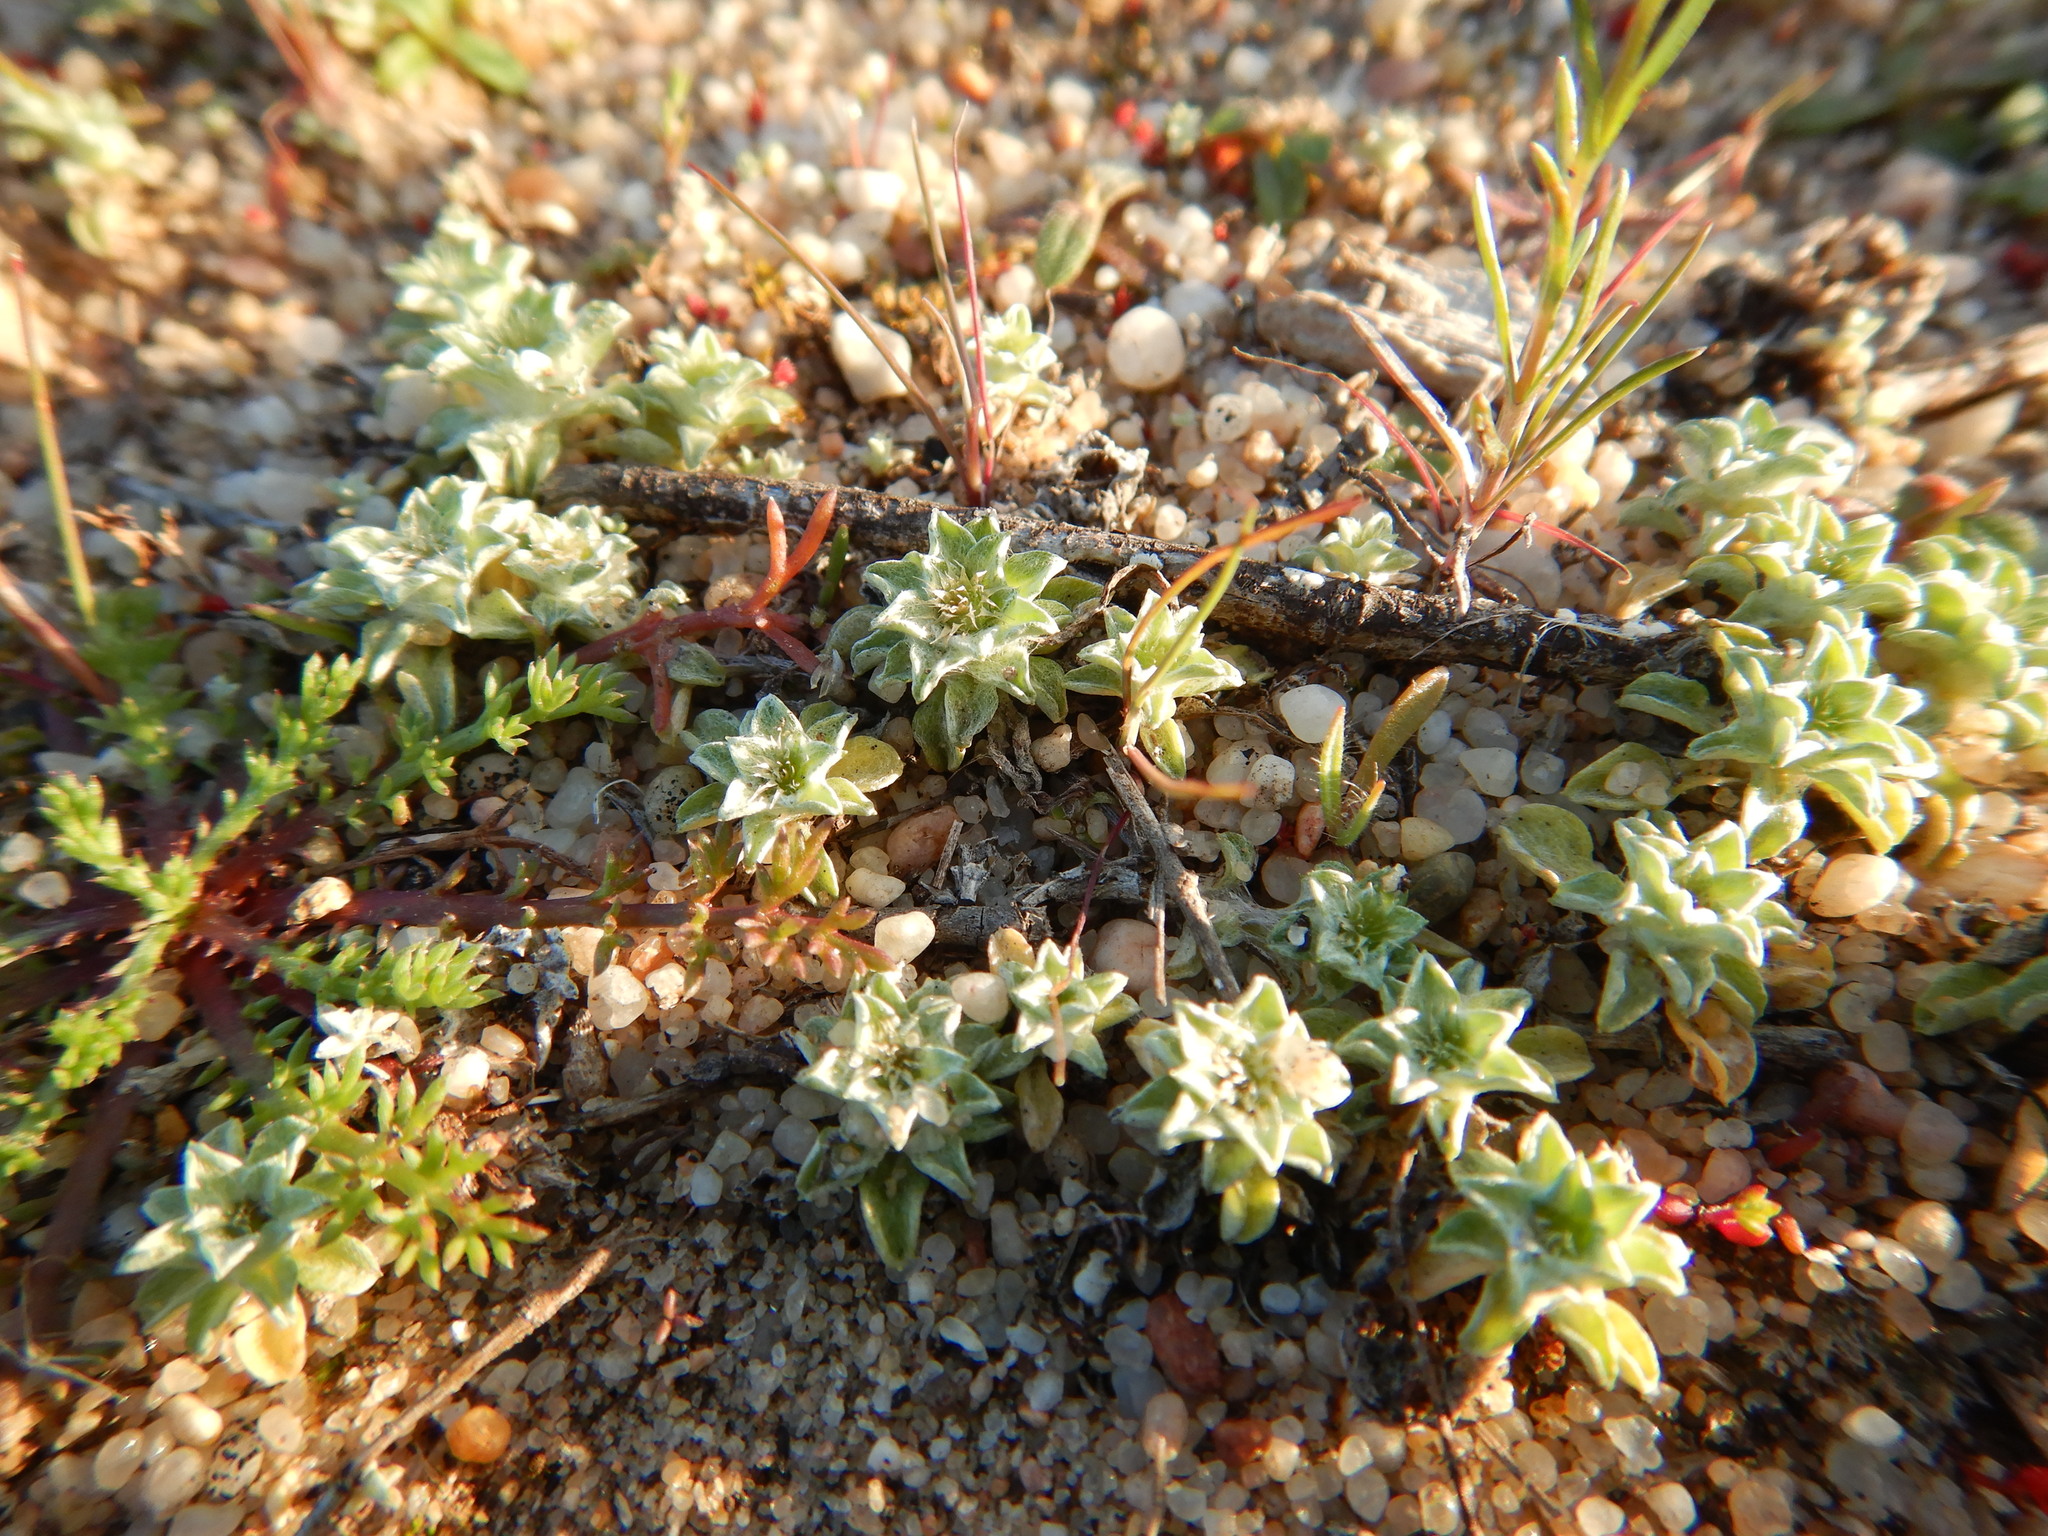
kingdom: Plantae
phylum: Tracheophyta
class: Magnoliopsida
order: Asterales
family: Asteraceae
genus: Filago
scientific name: Filago pygmaea
